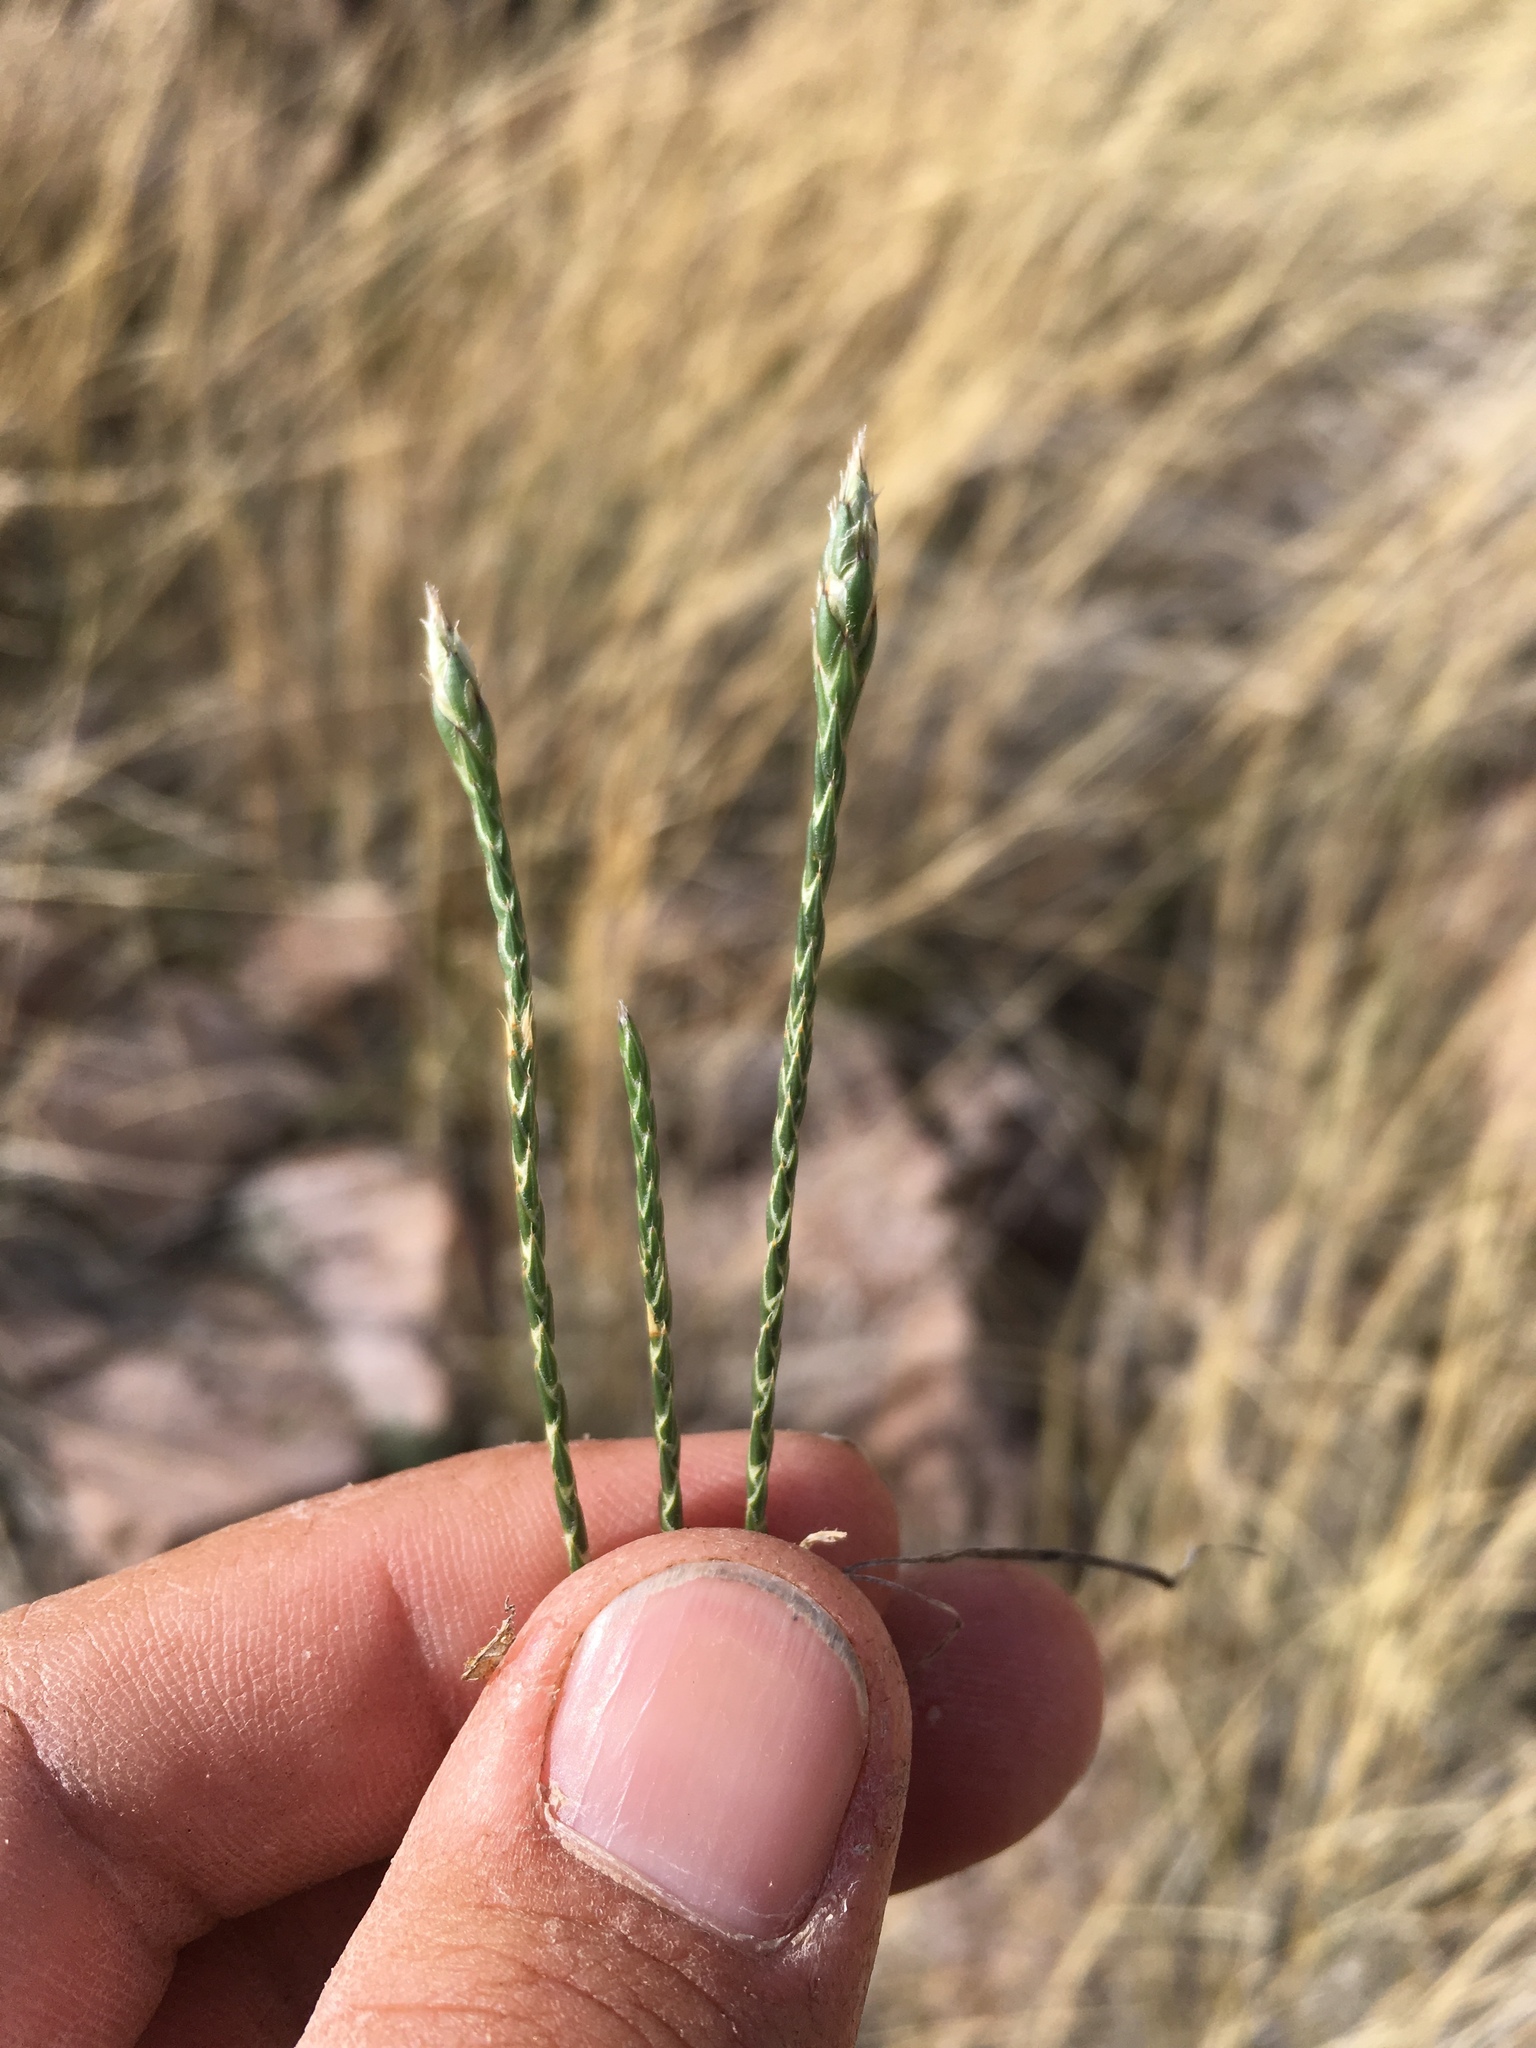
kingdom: Plantae
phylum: Tracheophyta
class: Magnoliopsida
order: Lamiales
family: Acanthaceae
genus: Elytraria
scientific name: Elytraria imbricata
